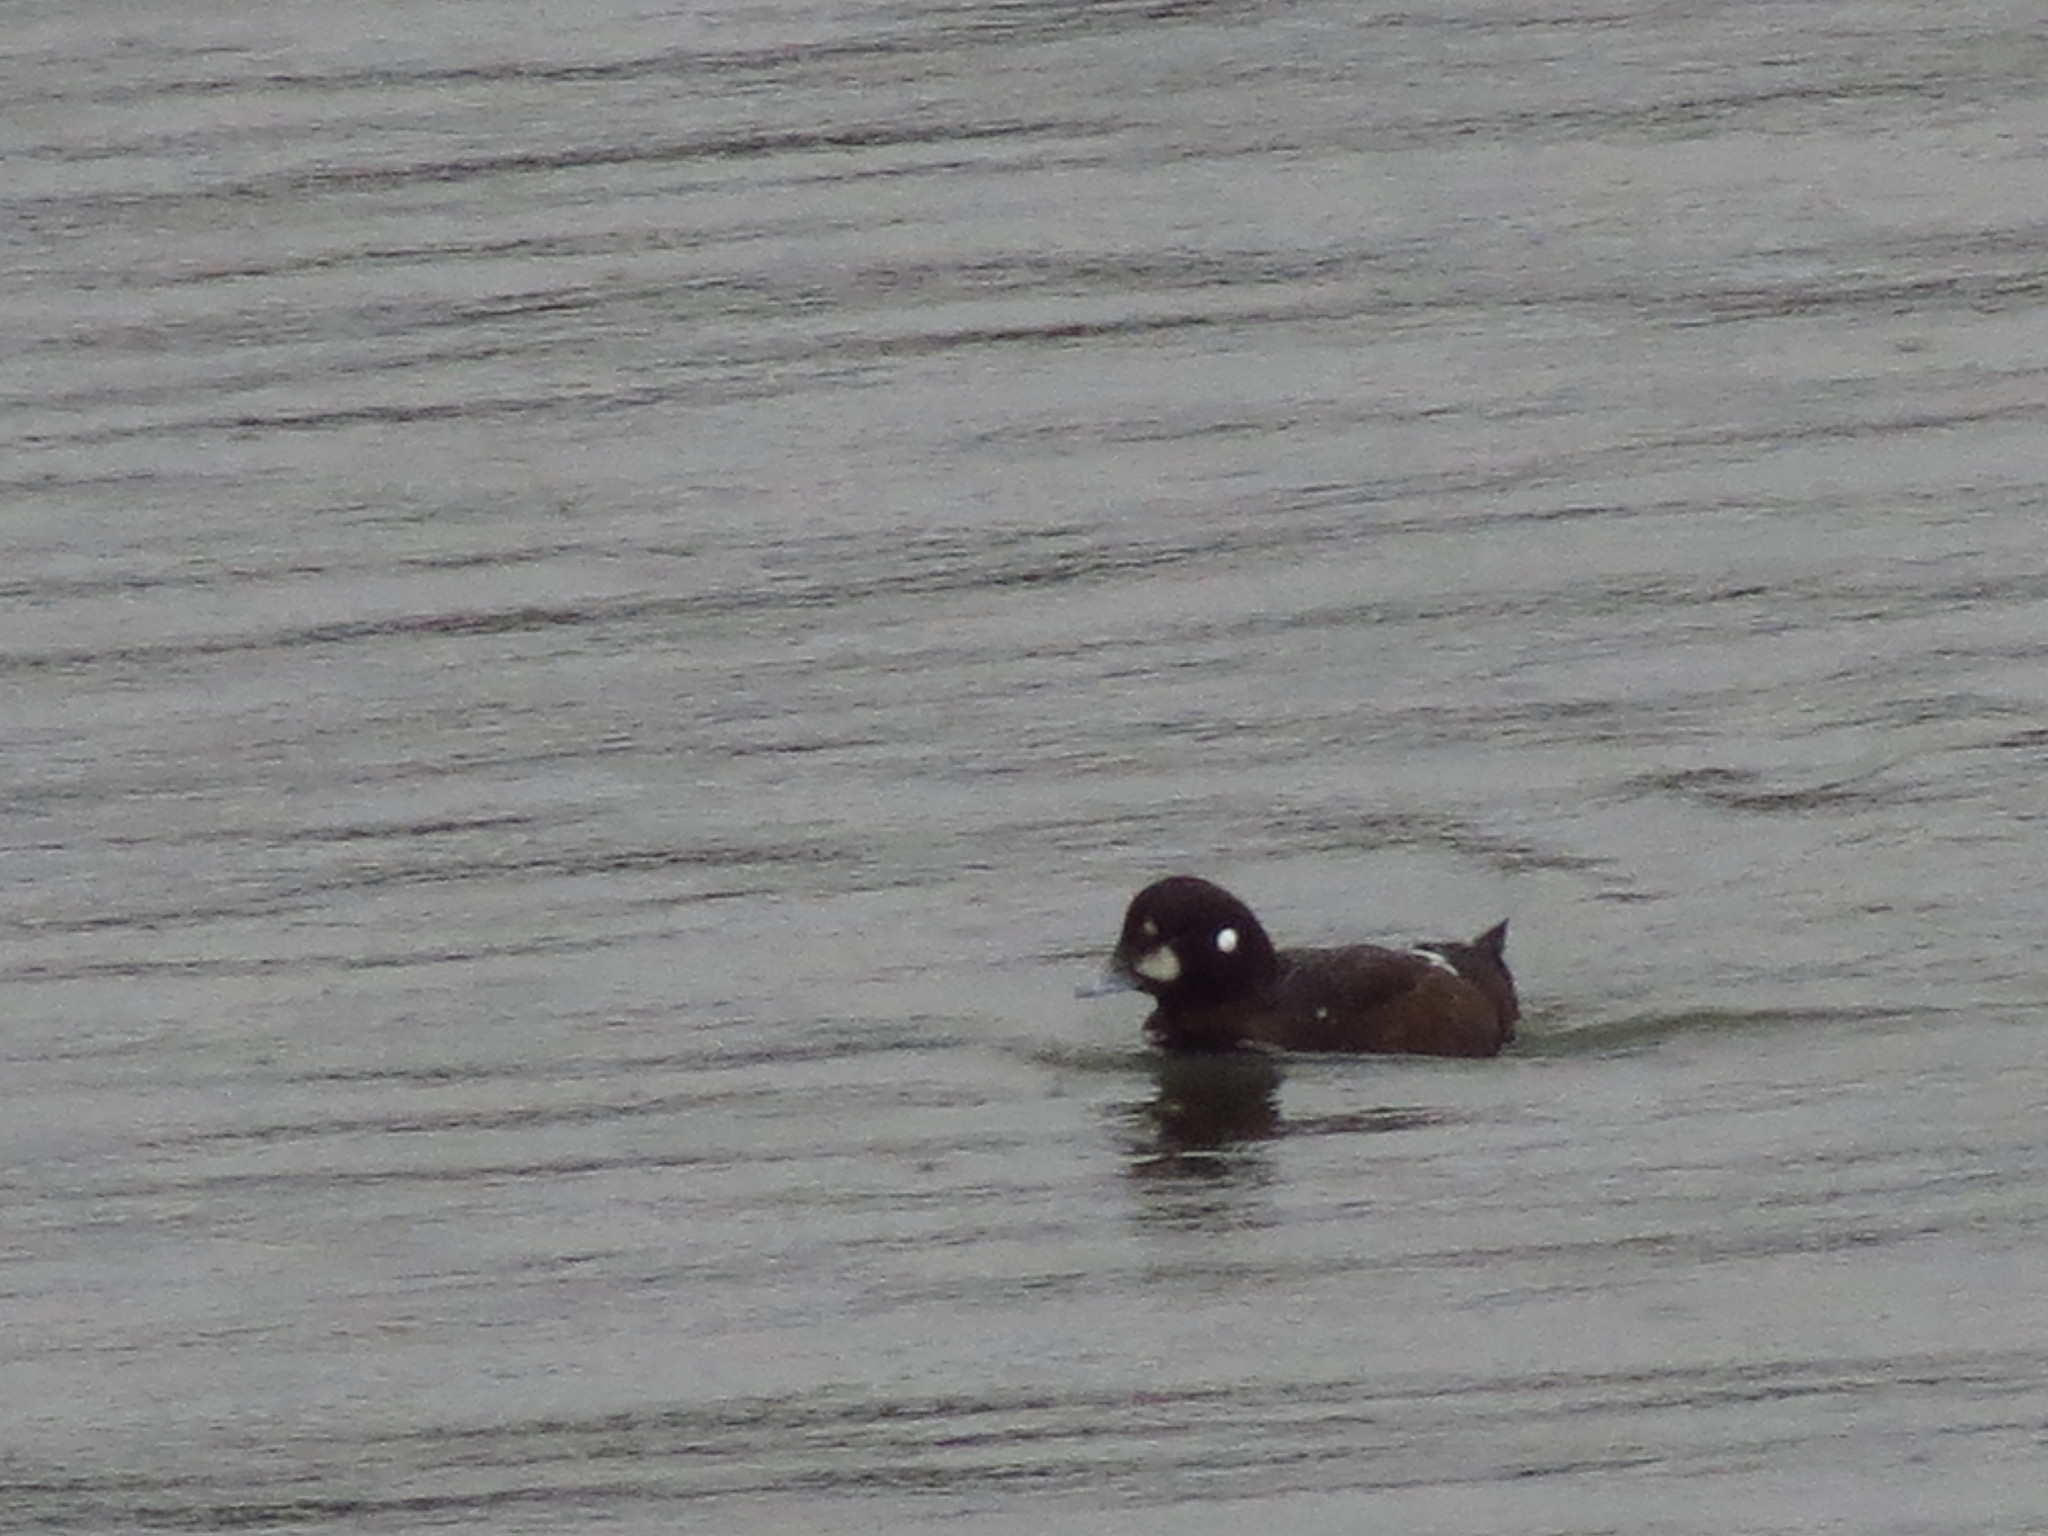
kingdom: Animalia
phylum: Chordata
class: Aves
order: Anseriformes
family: Anatidae
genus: Histrionicus
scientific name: Histrionicus histrionicus
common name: Harlequin duck
